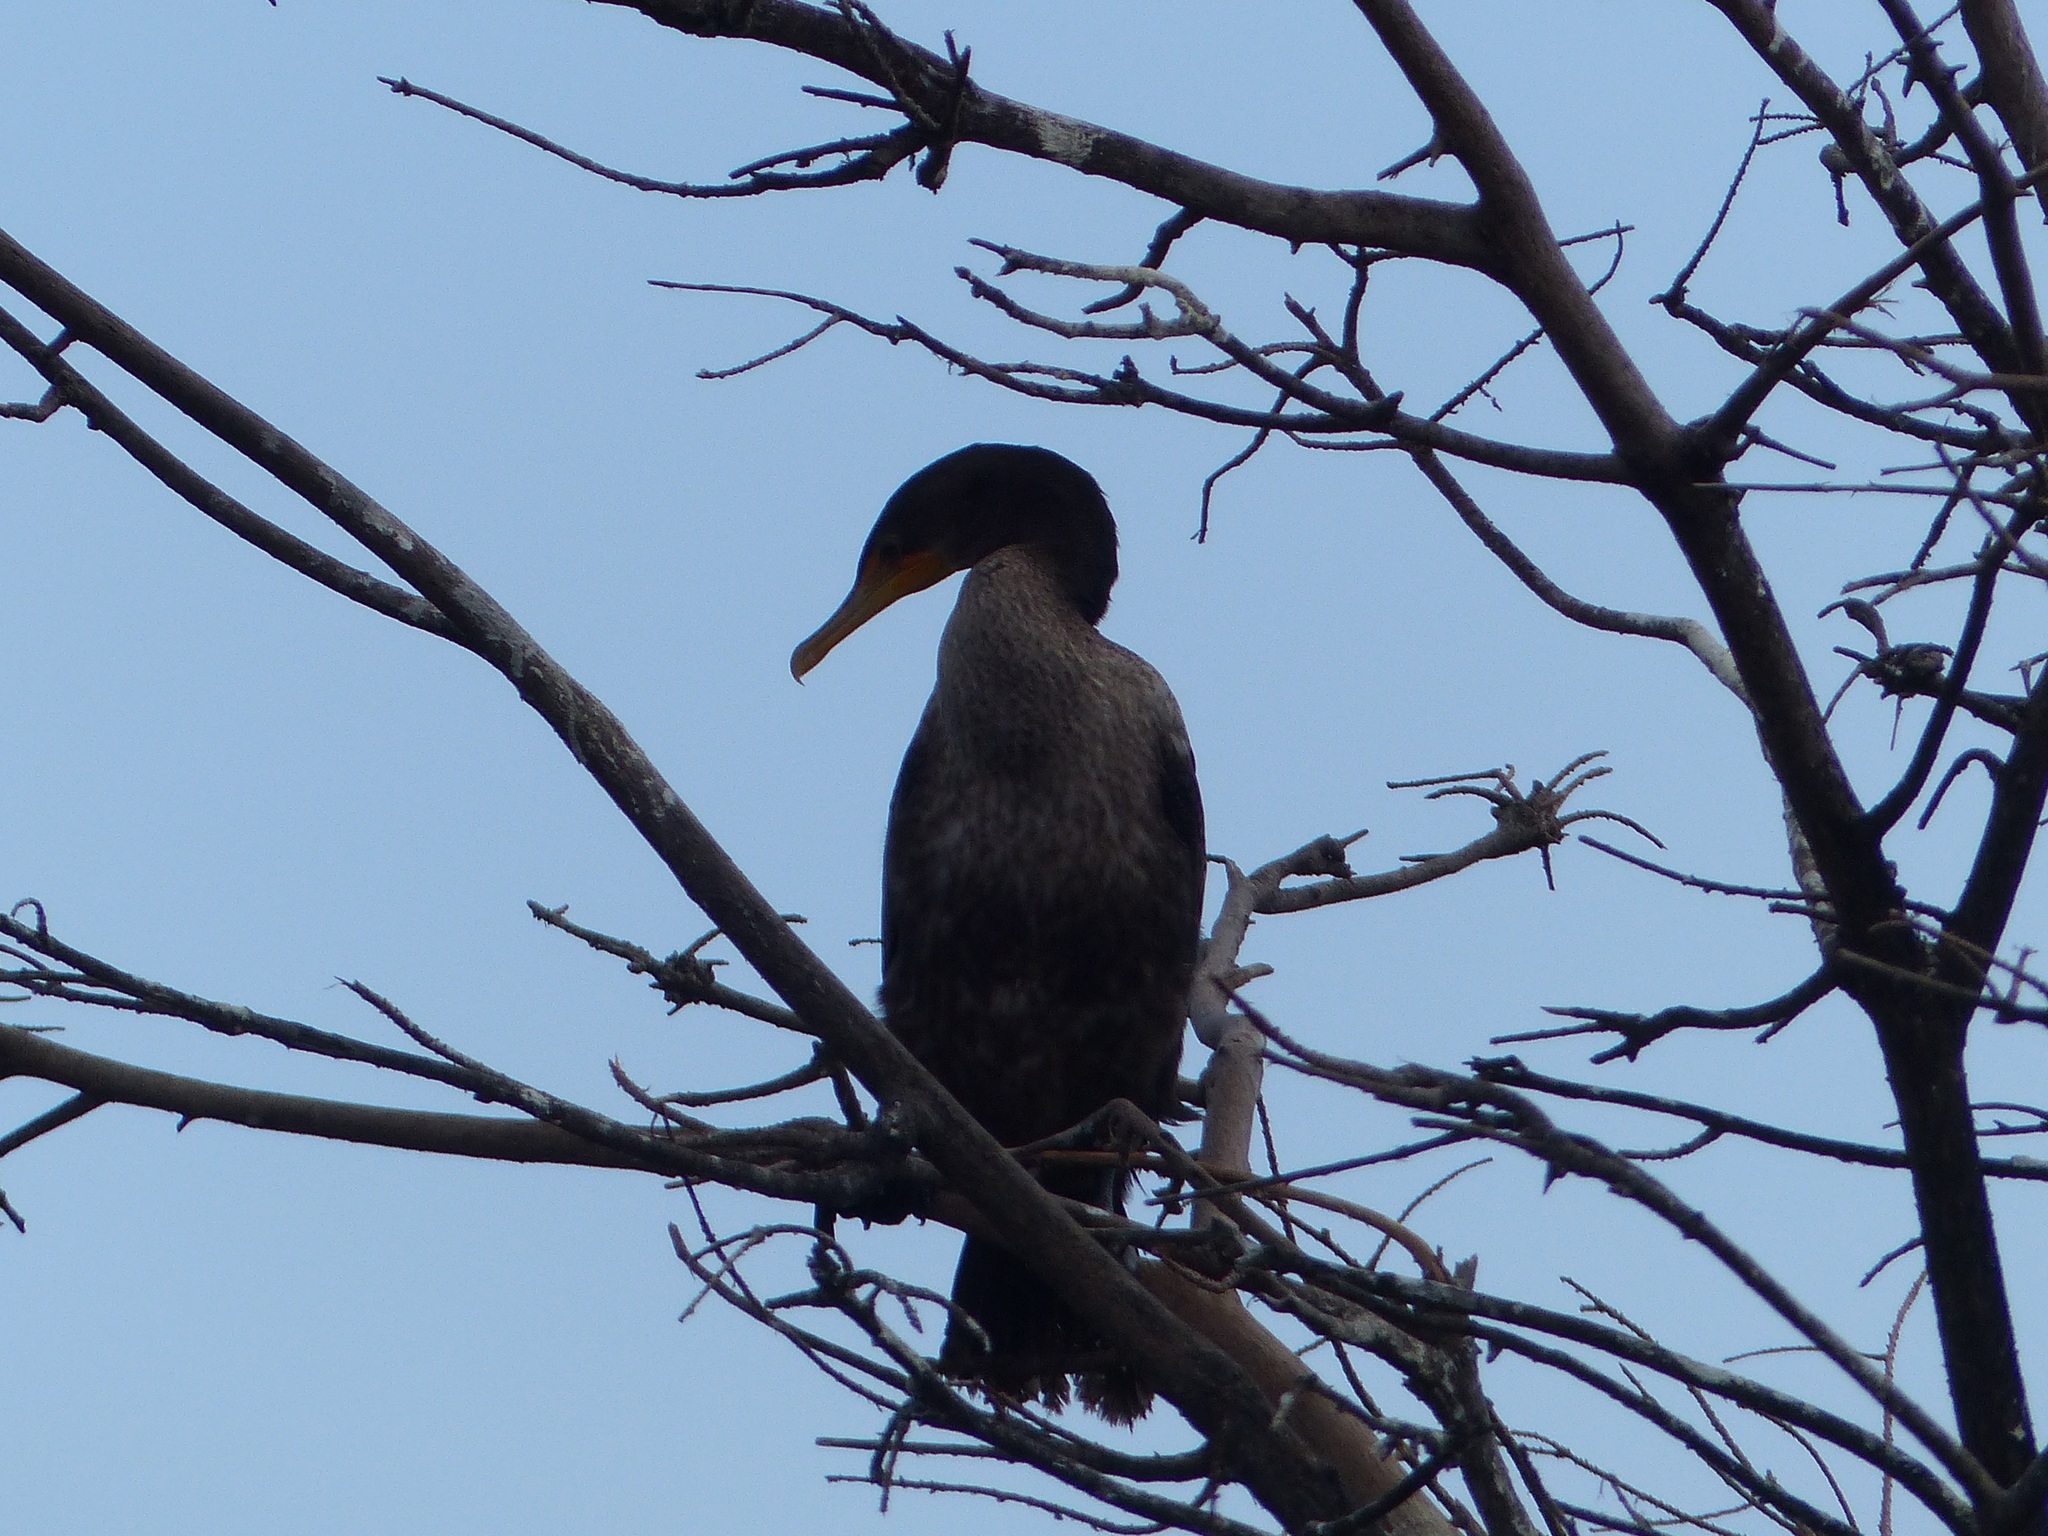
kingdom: Animalia
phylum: Chordata
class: Aves
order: Suliformes
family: Phalacrocoracidae
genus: Phalacrocorax
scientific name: Phalacrocorax auritus
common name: Double-crested cormorant
